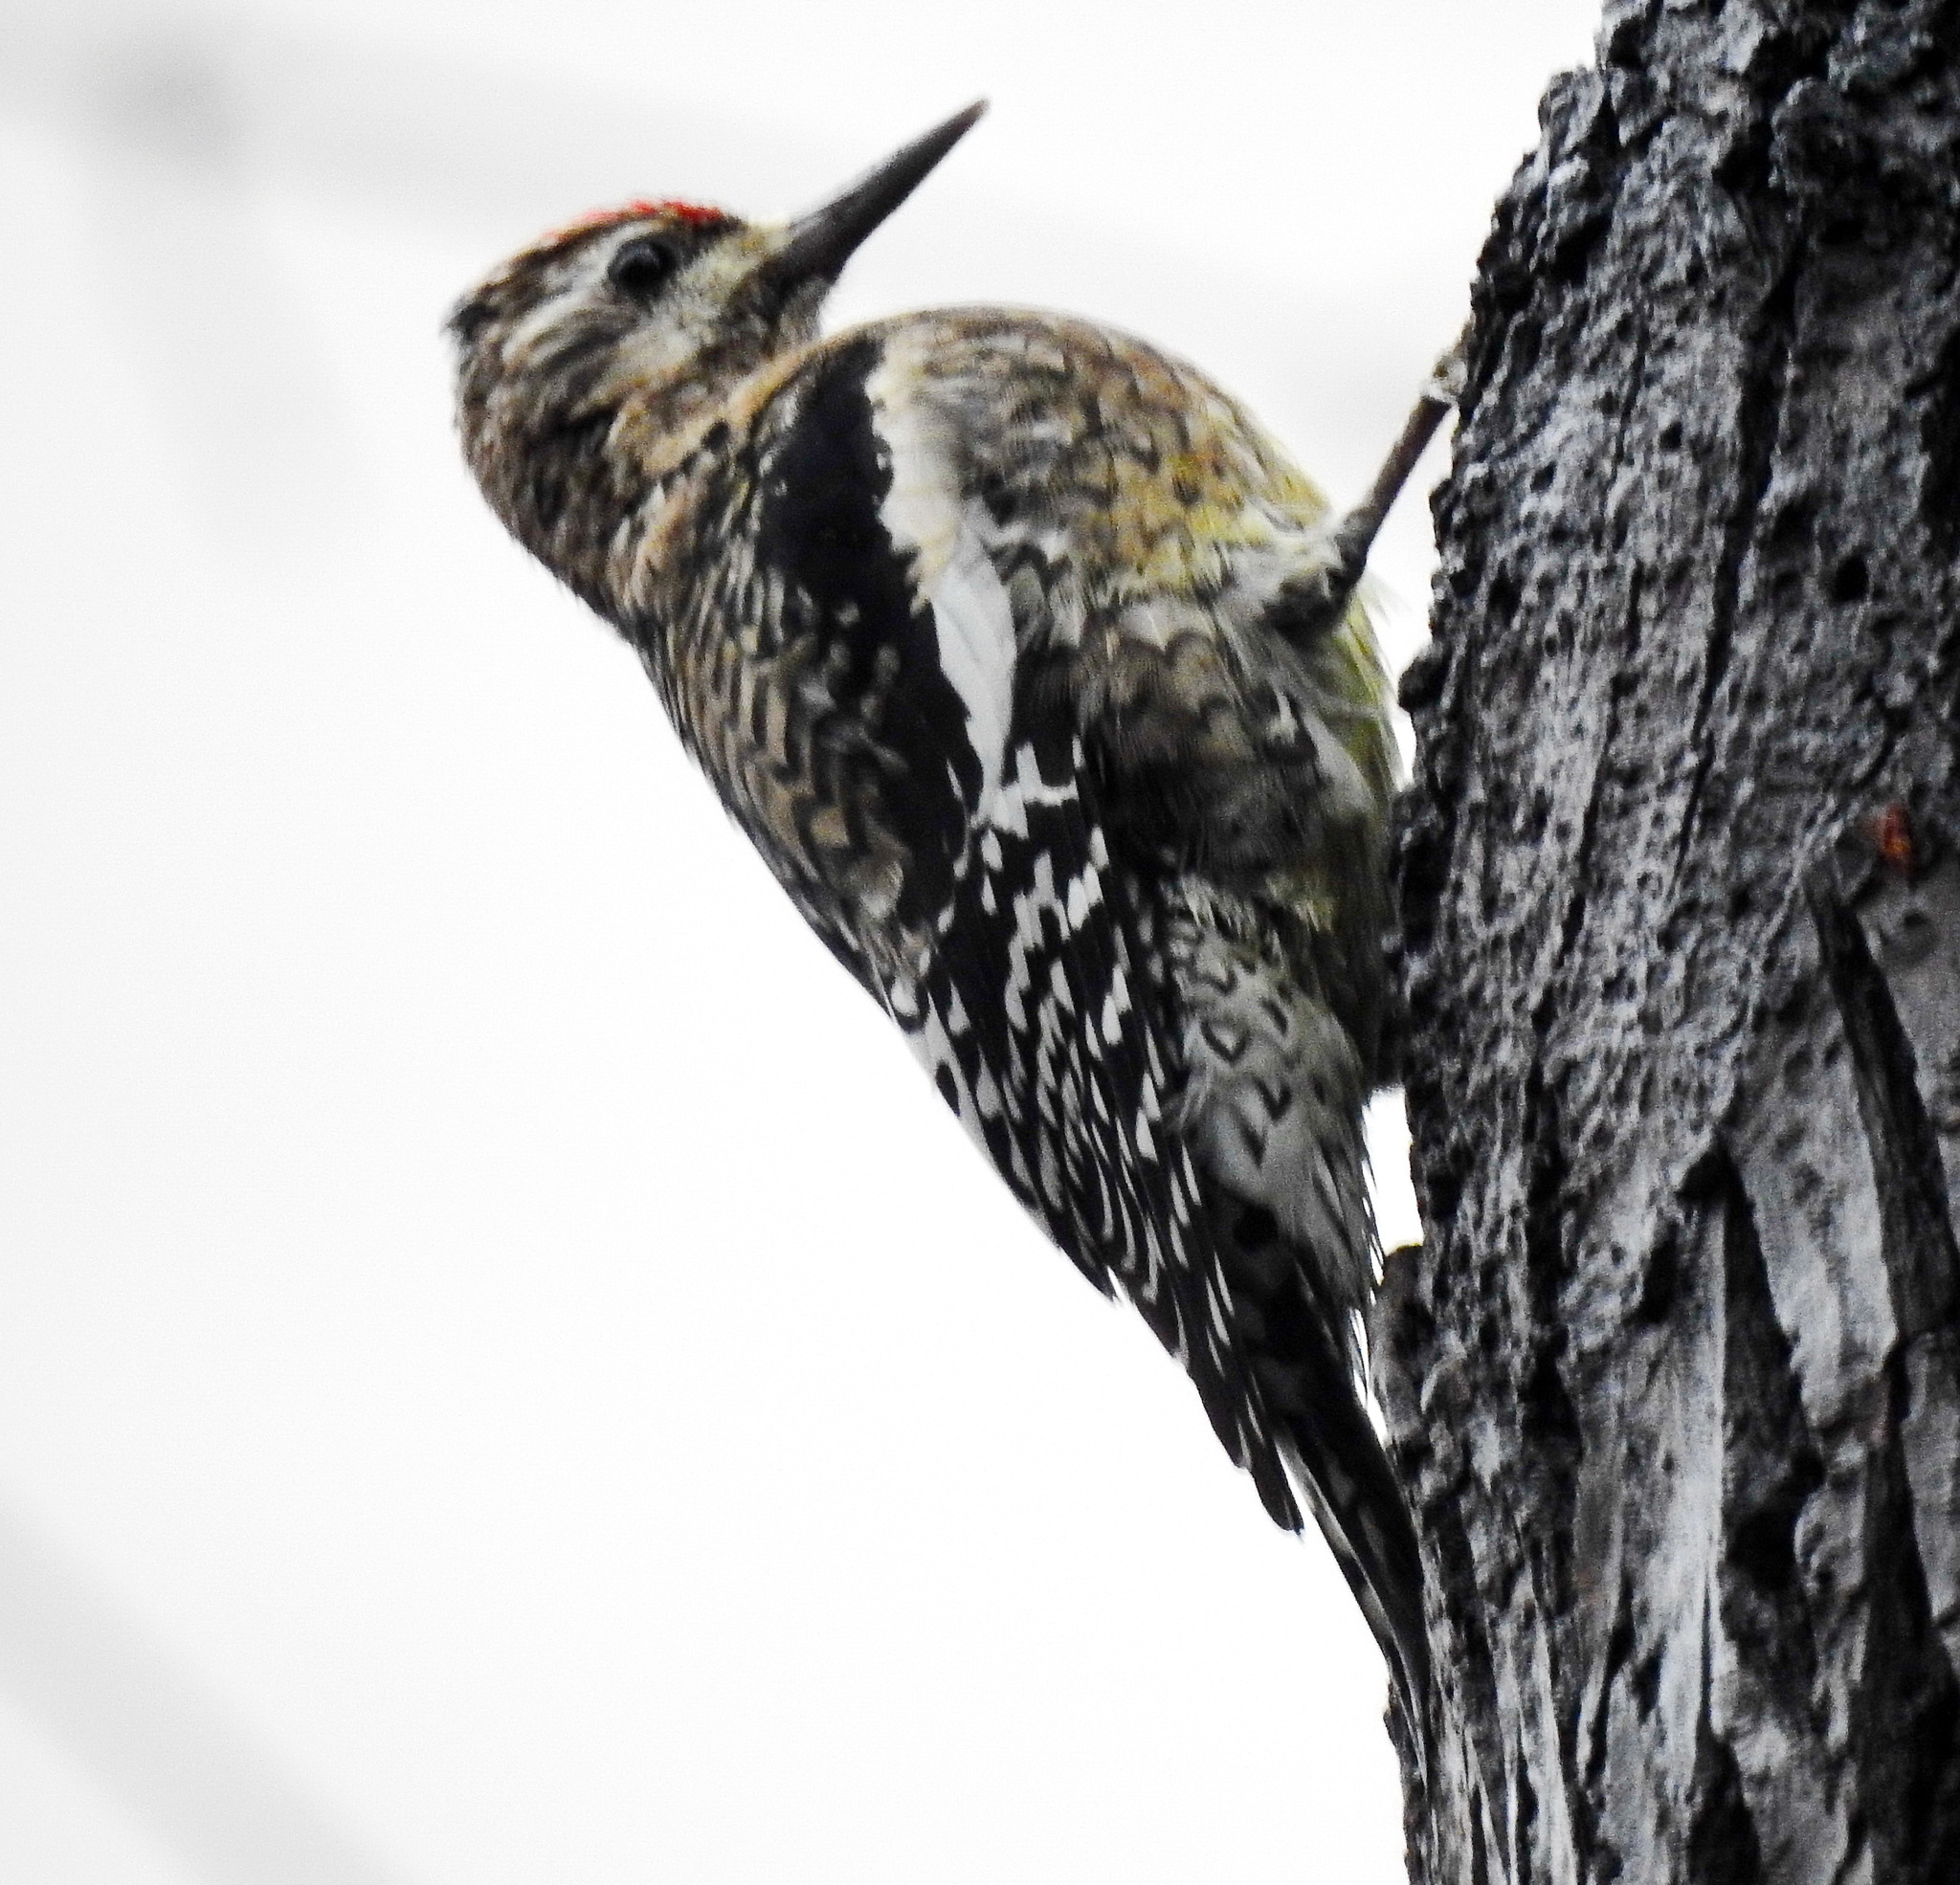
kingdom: Animalia
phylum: Chordata
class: Aves
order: Piciformes
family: Picidae
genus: Sphyrapicus
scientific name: Sphyrapicus varius
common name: Yellow-bellied sapsucker
